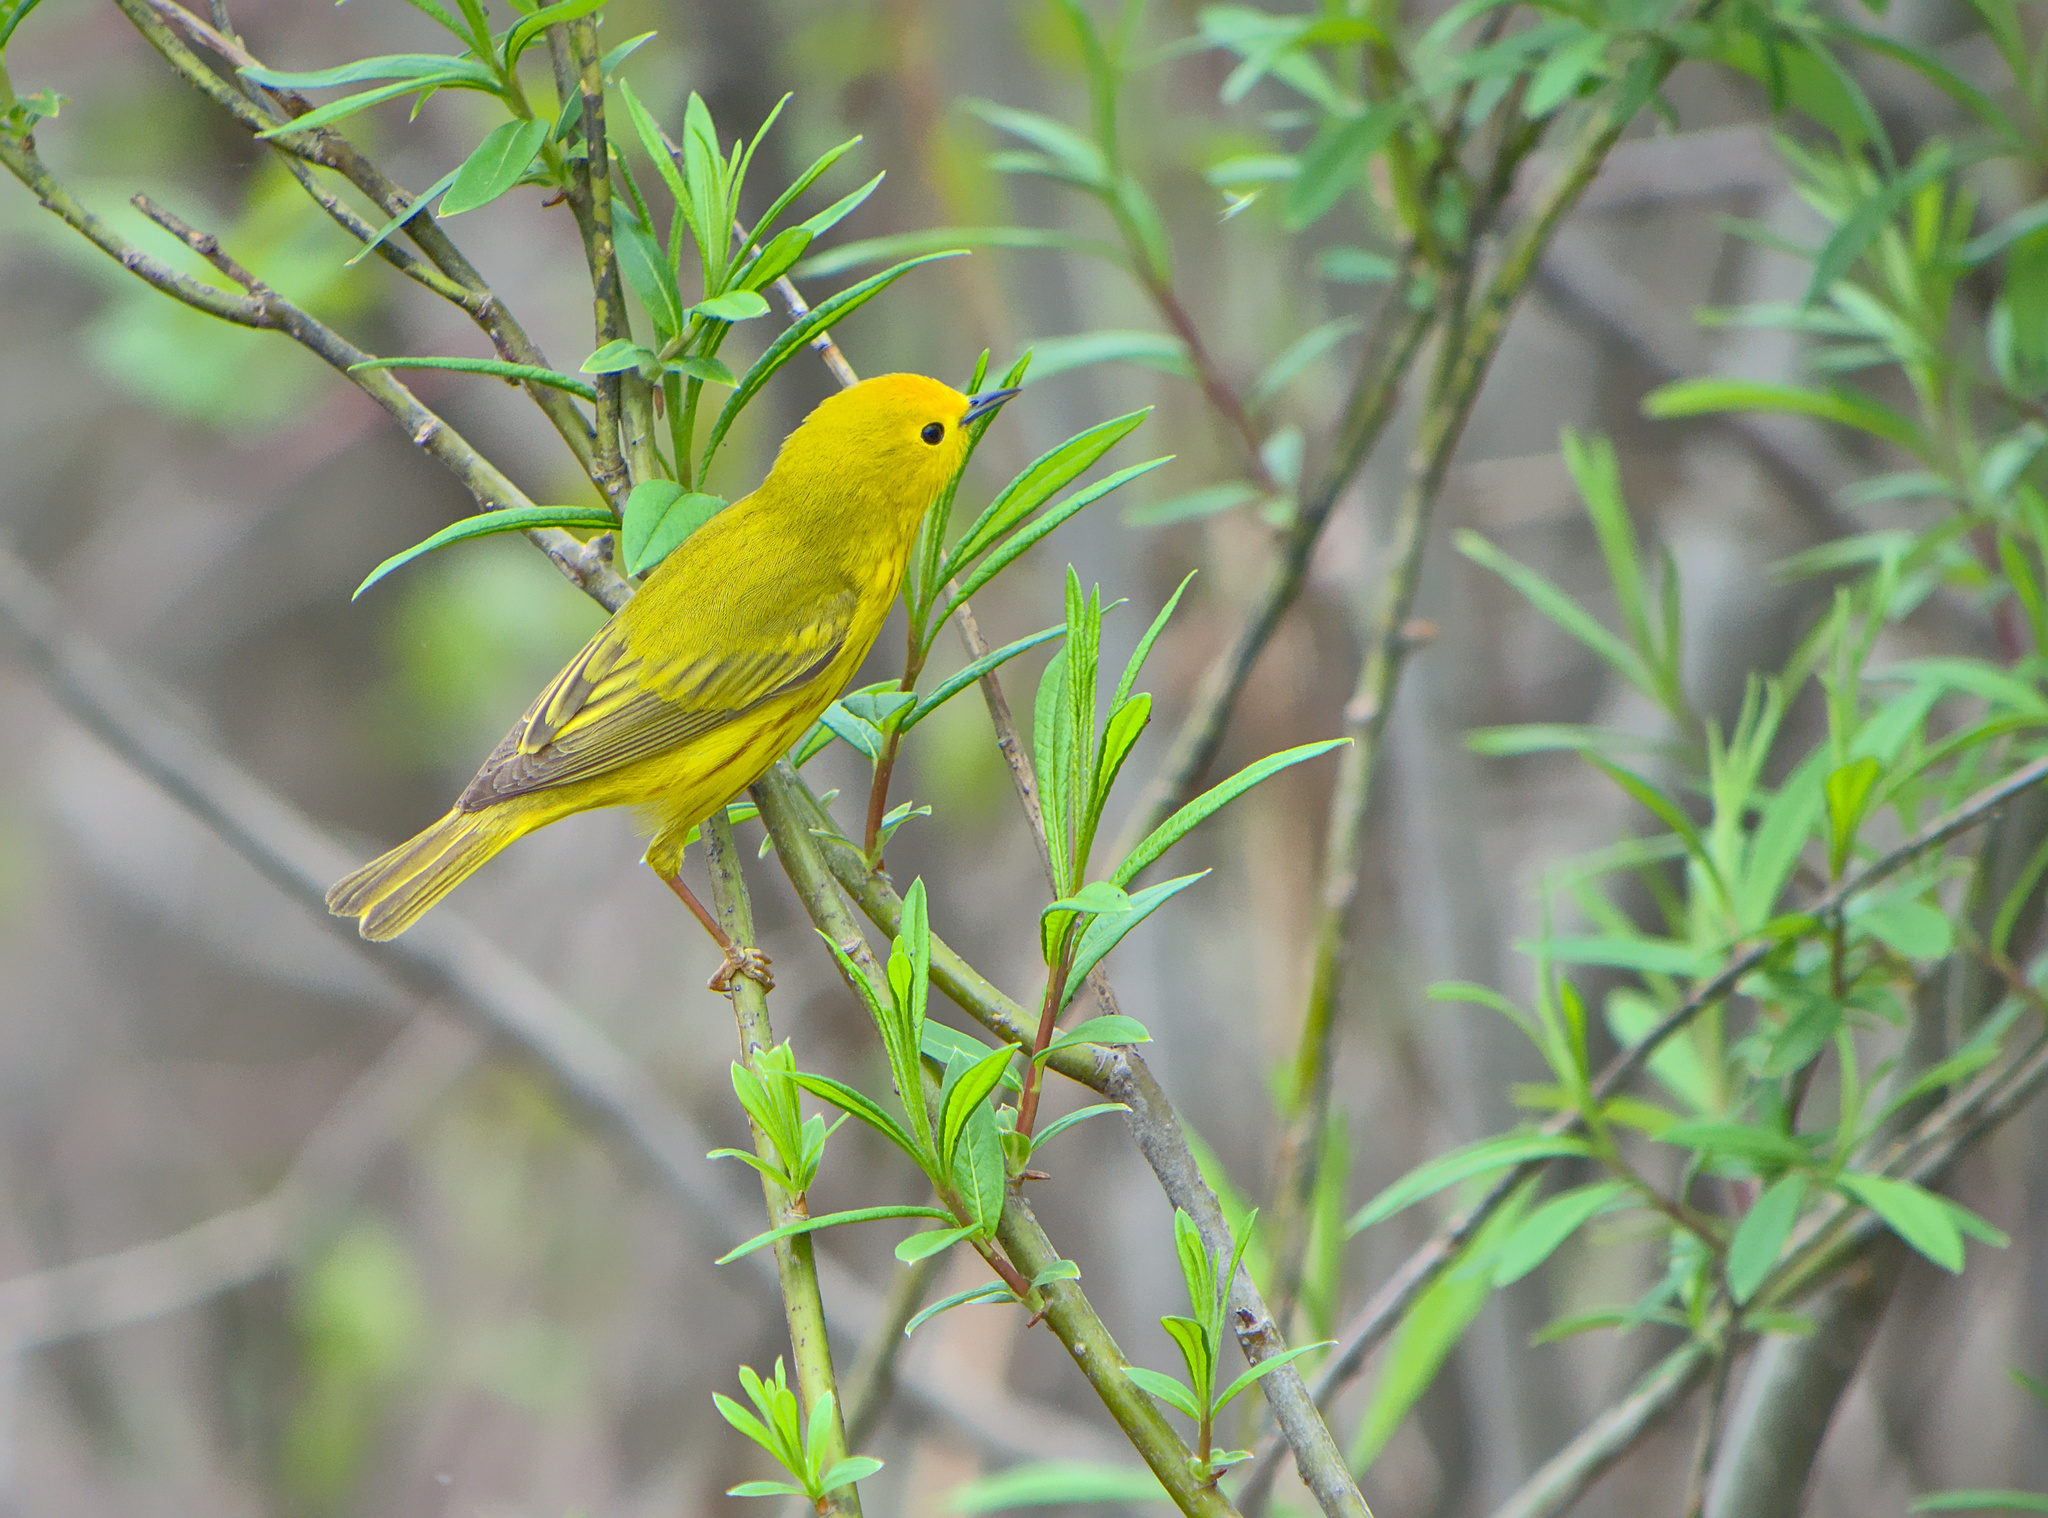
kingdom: Animalia
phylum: Chordata
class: Aves
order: Passeriformes
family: Parulidae
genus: Setophaga
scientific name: Setophaga petechia
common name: Yellow warbler
